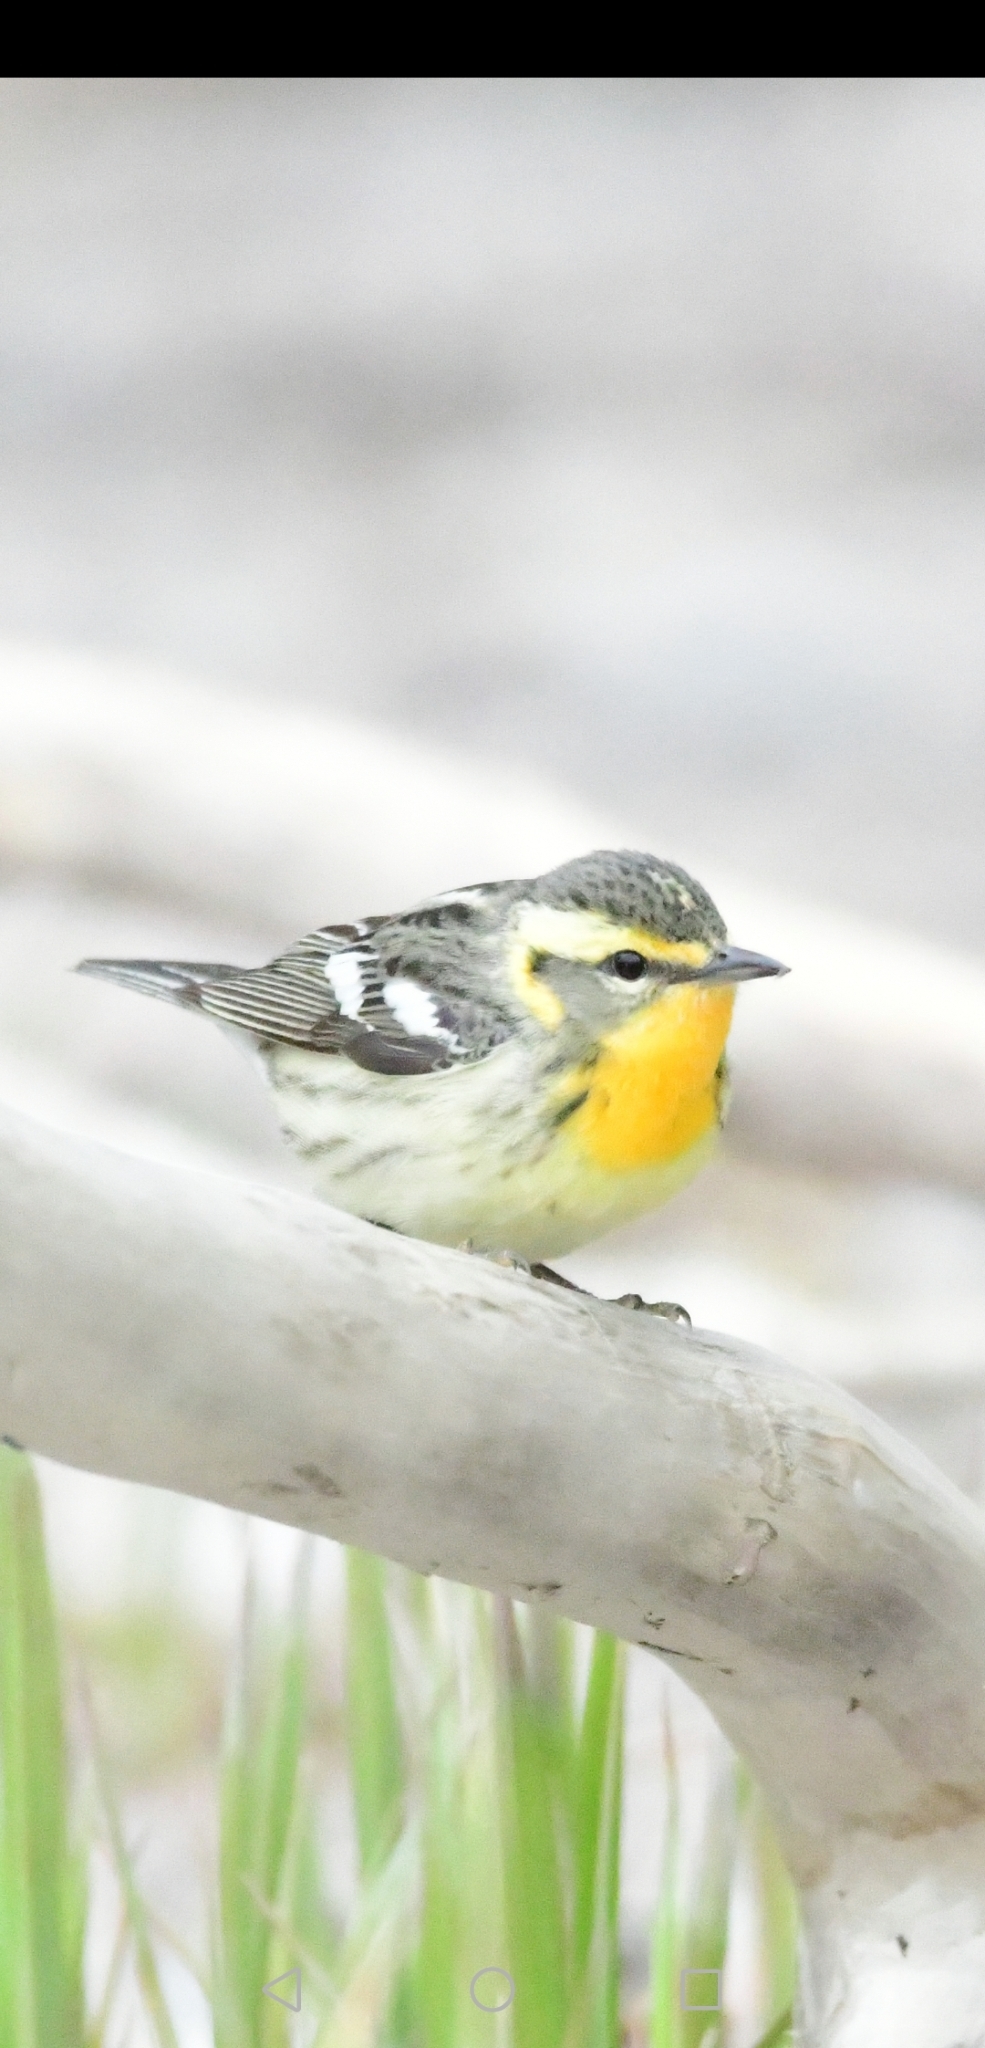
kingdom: Animalia
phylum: Chordata
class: Aves
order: Passeriformes
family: Parulidae
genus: Setophaga
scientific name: Setophaga fusca
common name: Blackburnian warbler
